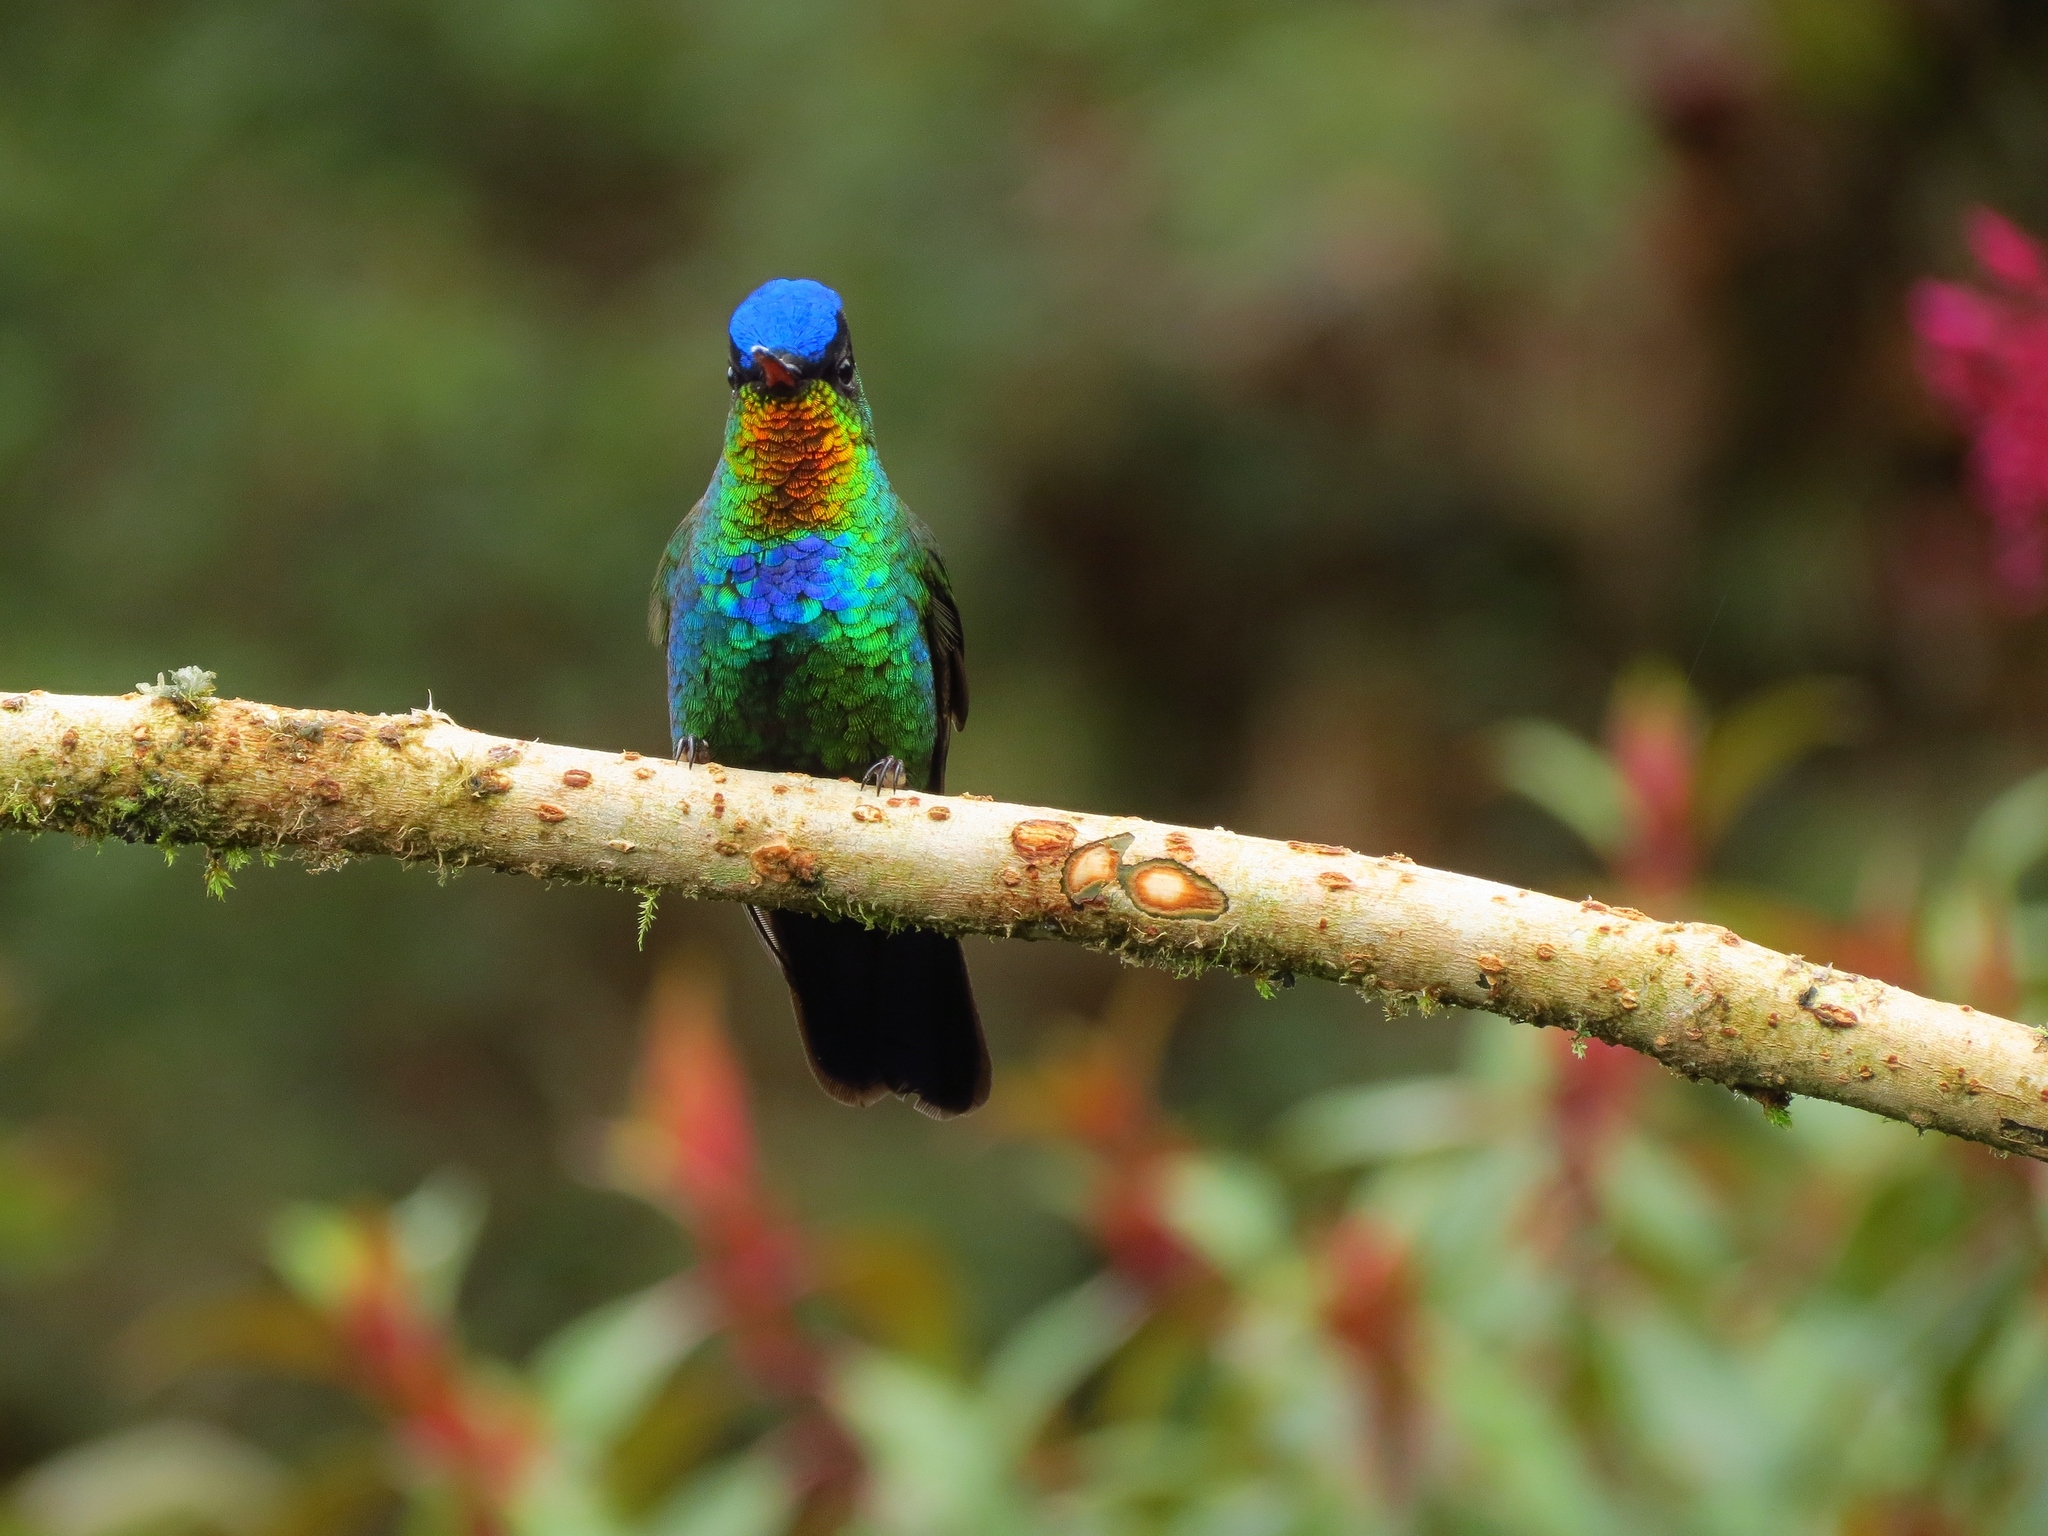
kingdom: Animalia
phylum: Chordata
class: Aves
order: Apodiformes
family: Trochilidae
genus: Panterpe
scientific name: Panterpe insignis
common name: Fiery-throated hummingbird
